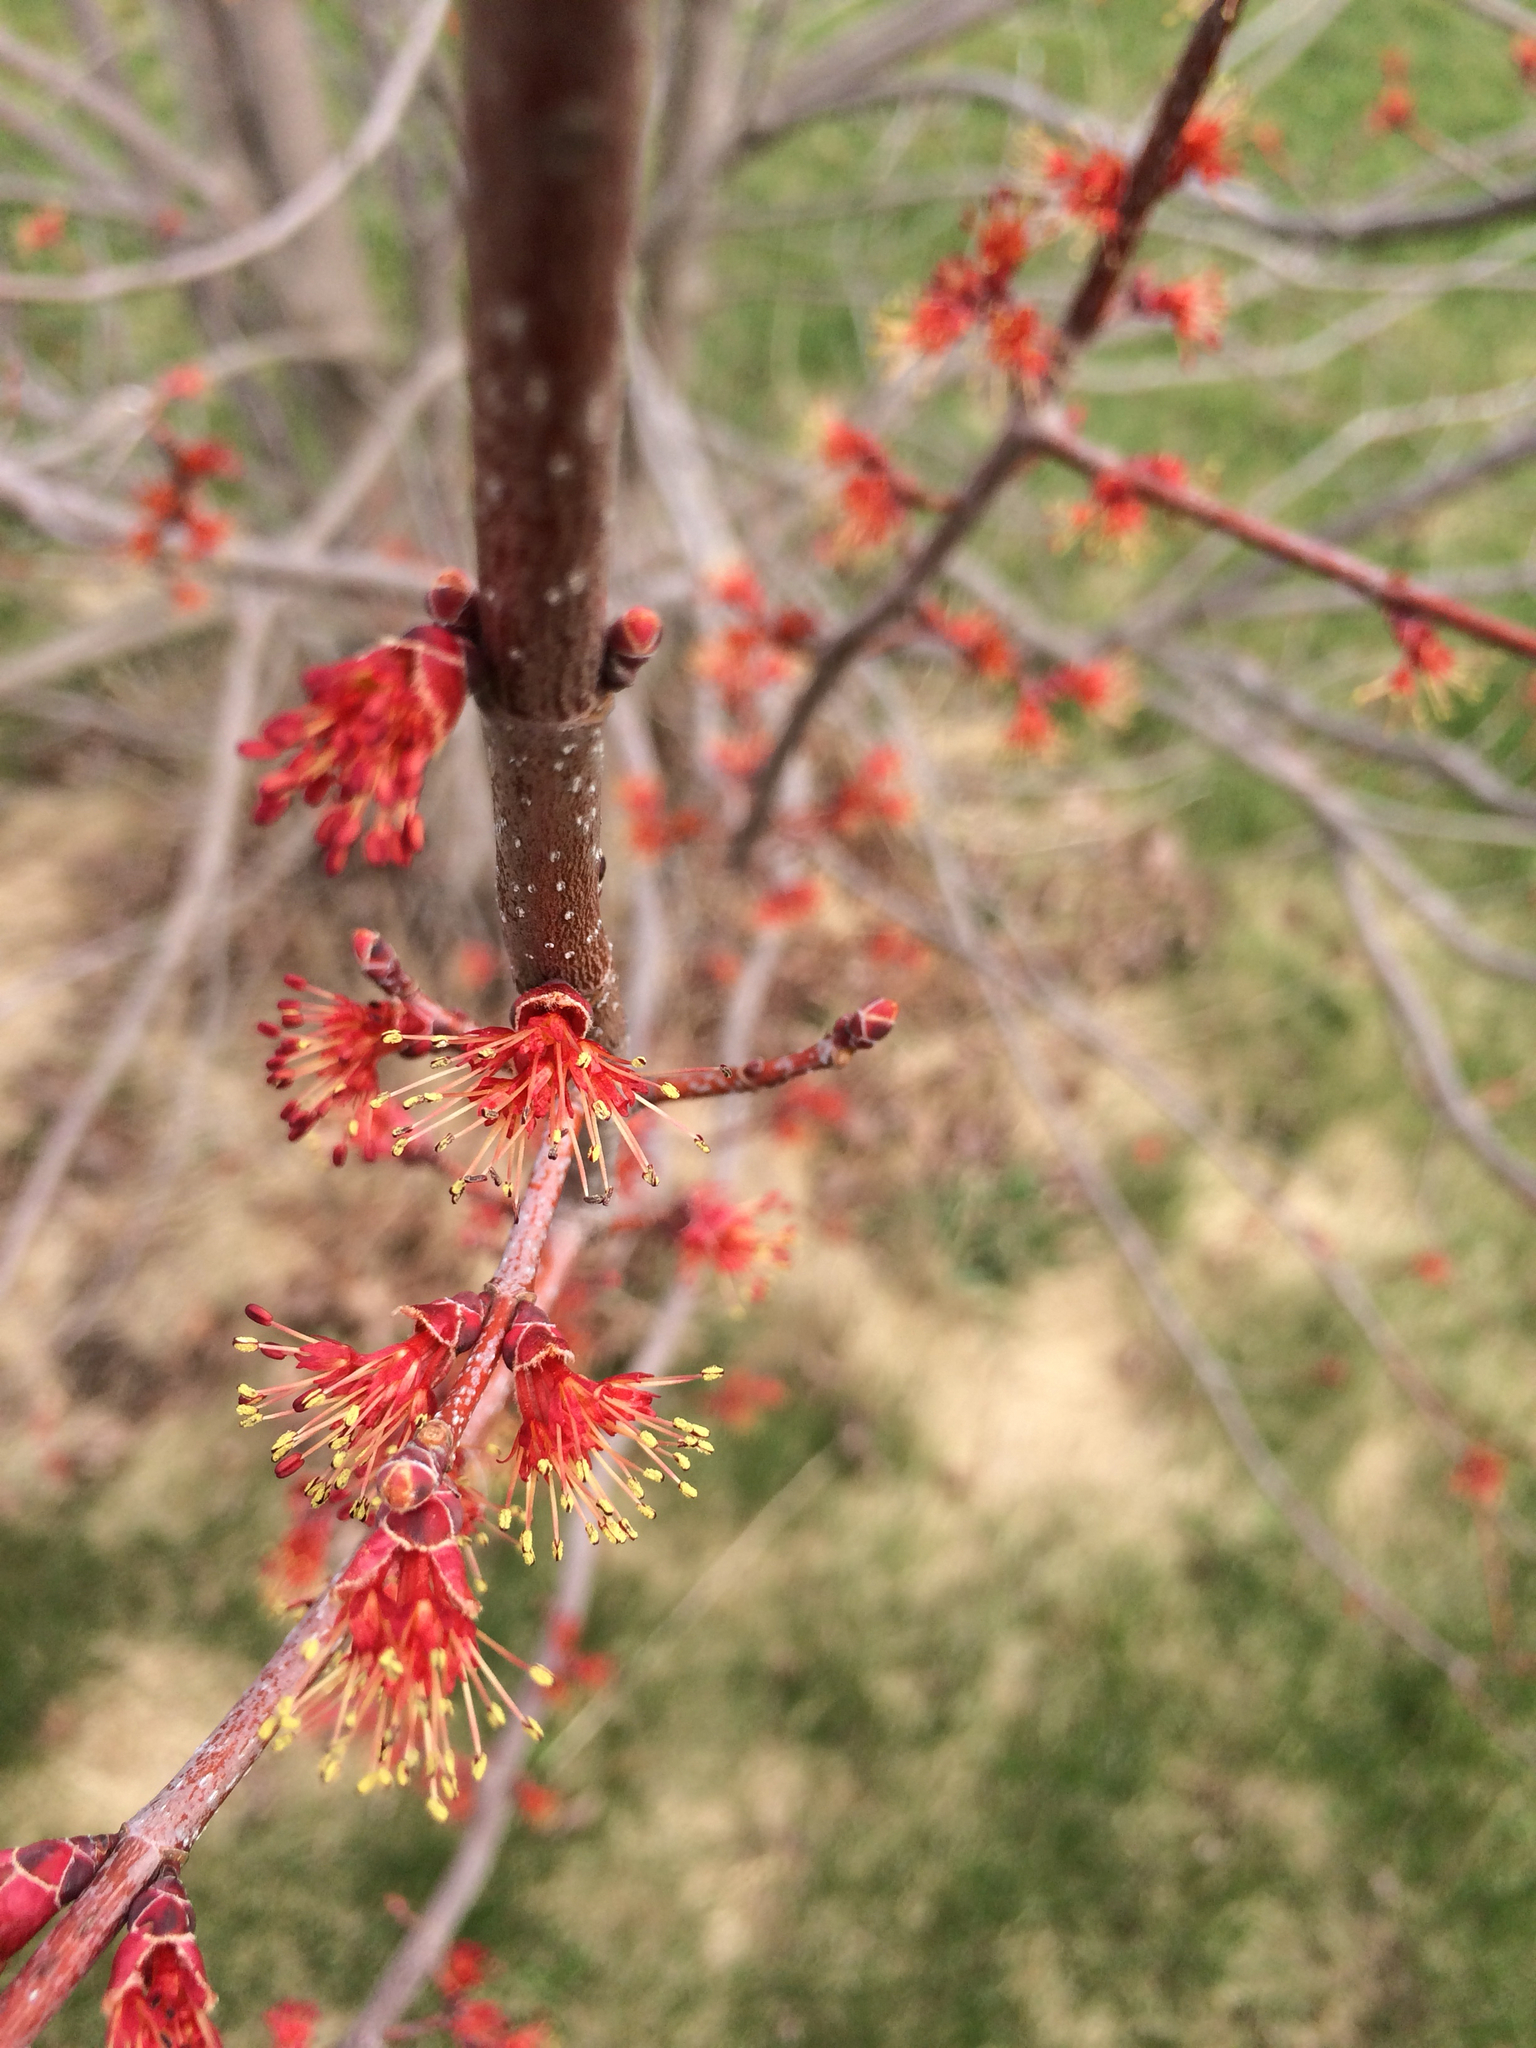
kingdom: Plantae
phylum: Tracheophyta
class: Magnoliopsida
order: Sapindales
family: Sapindaceae
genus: Acer
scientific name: Acer rubrum
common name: Red maple
